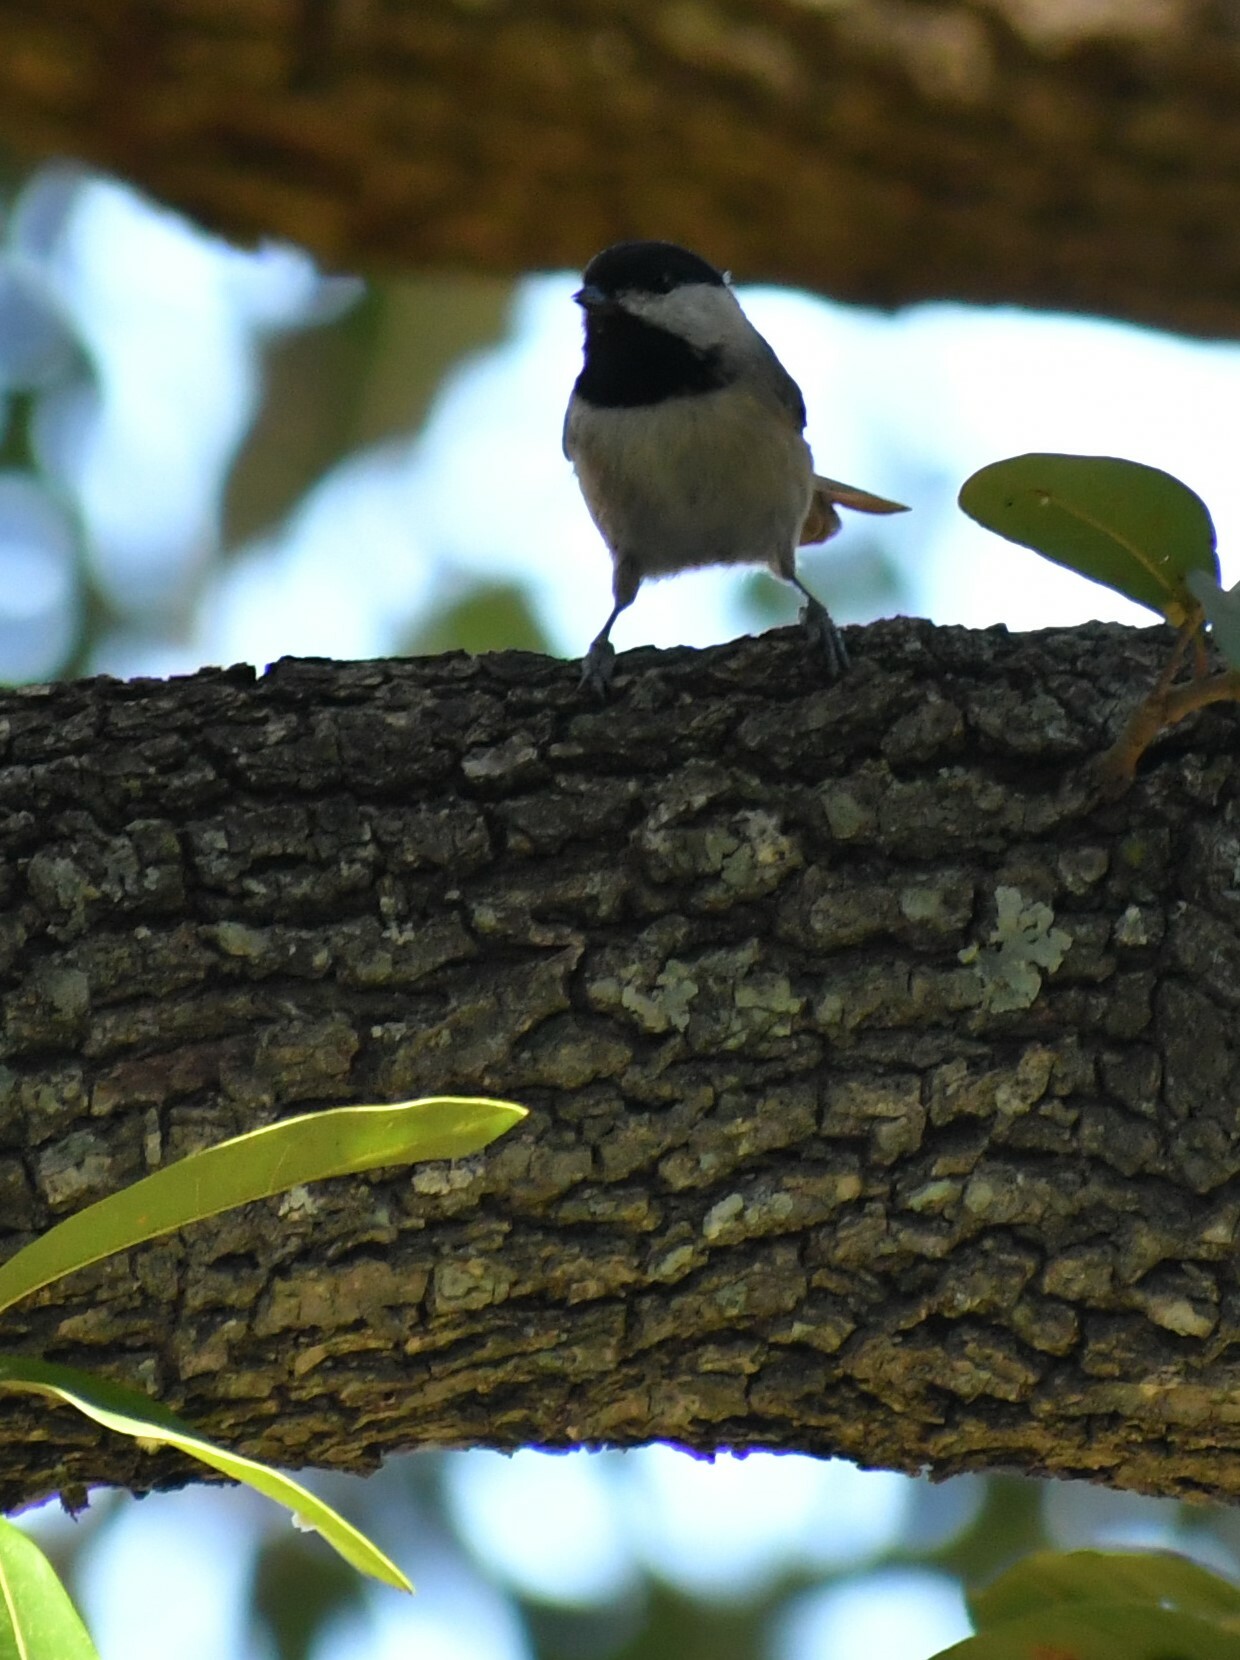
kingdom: Animalia
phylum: Chordata
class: Aves
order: Passeriformes
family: Paridae
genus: Poecile
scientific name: Poecile carolinensis
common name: Carolina chickadee
